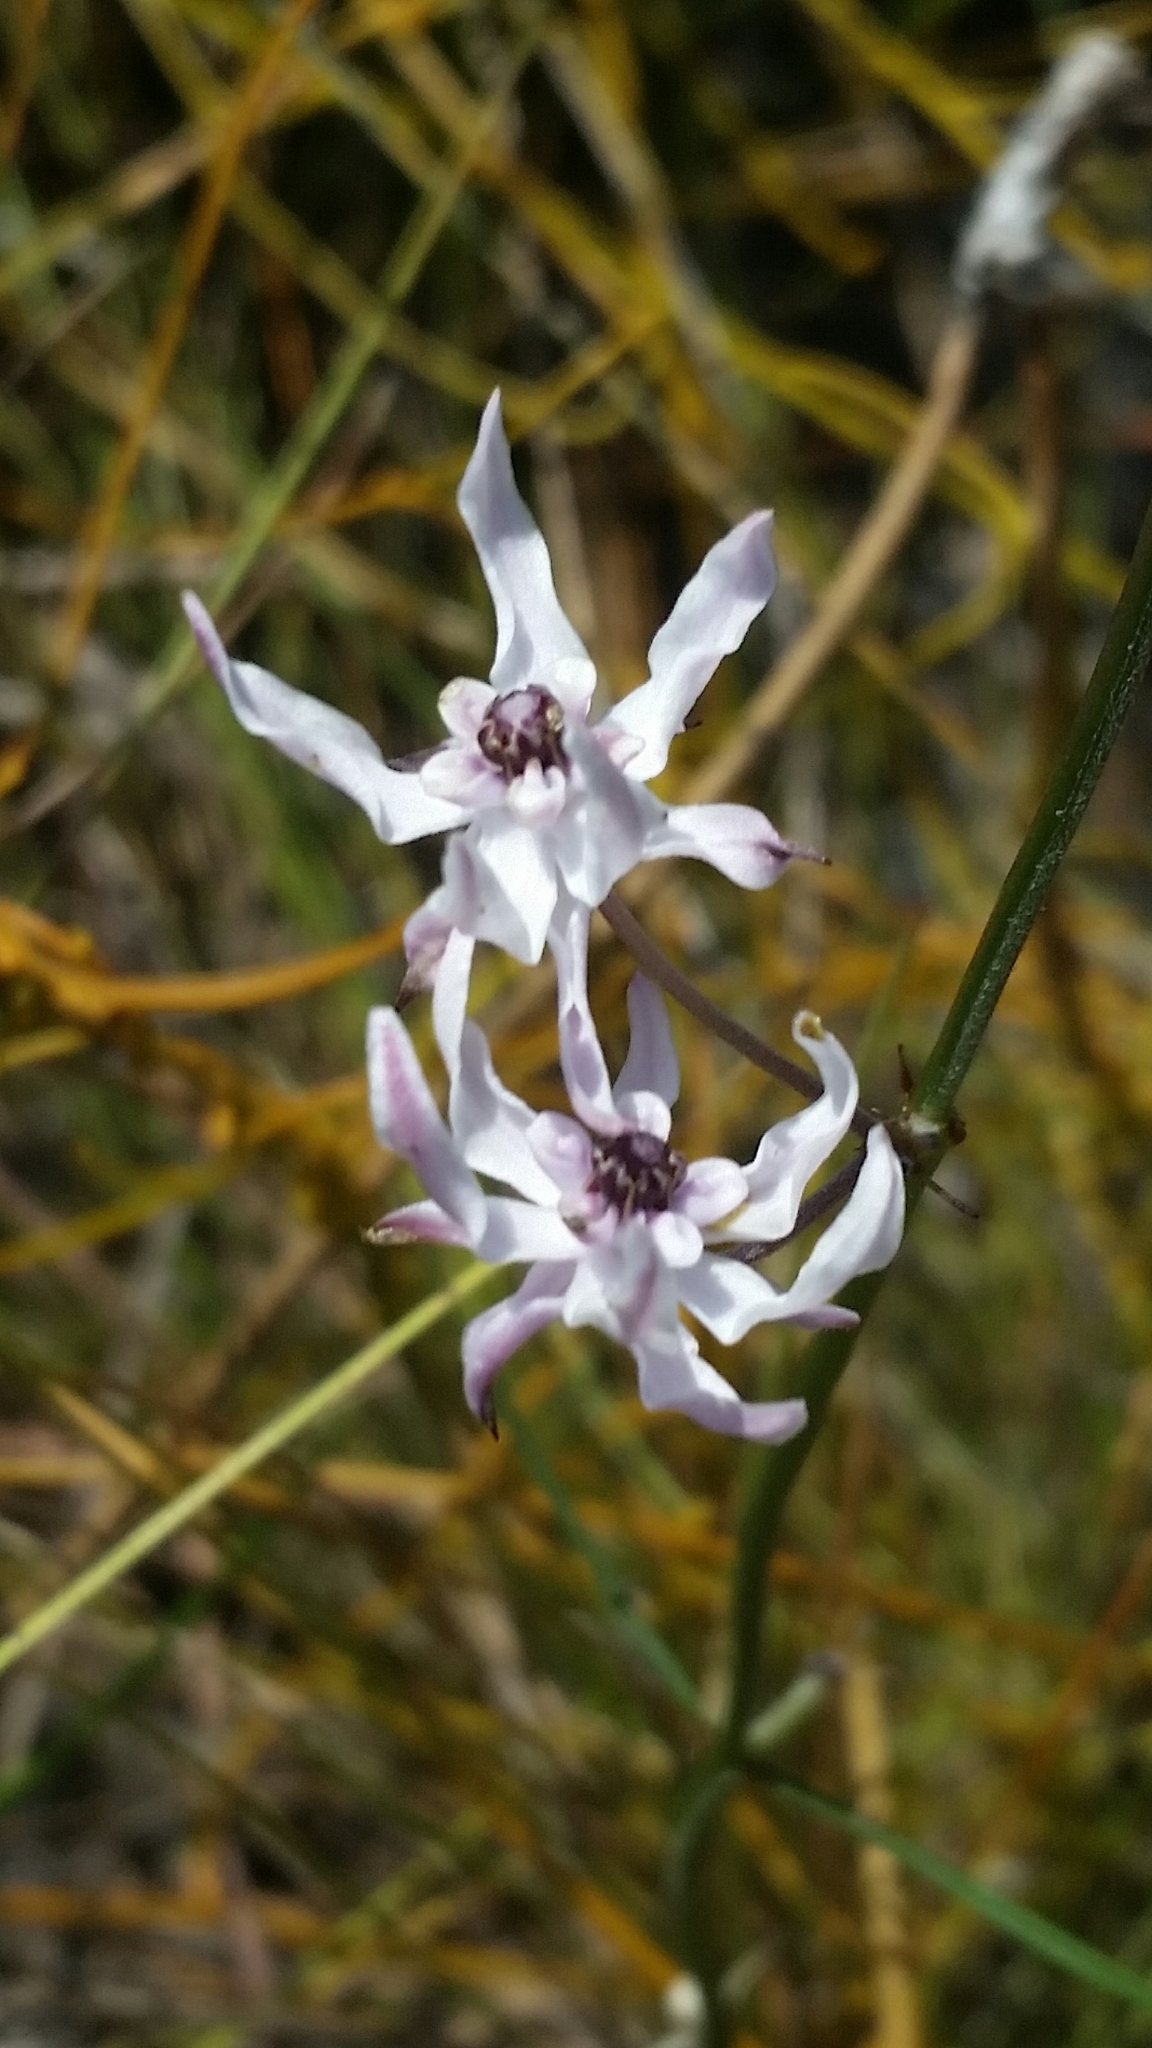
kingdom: Plantae
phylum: Tracheophyta
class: Magnoliopsida
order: Gentianales
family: Apocynaceae
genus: Asclepias
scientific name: Asclepias feayi
